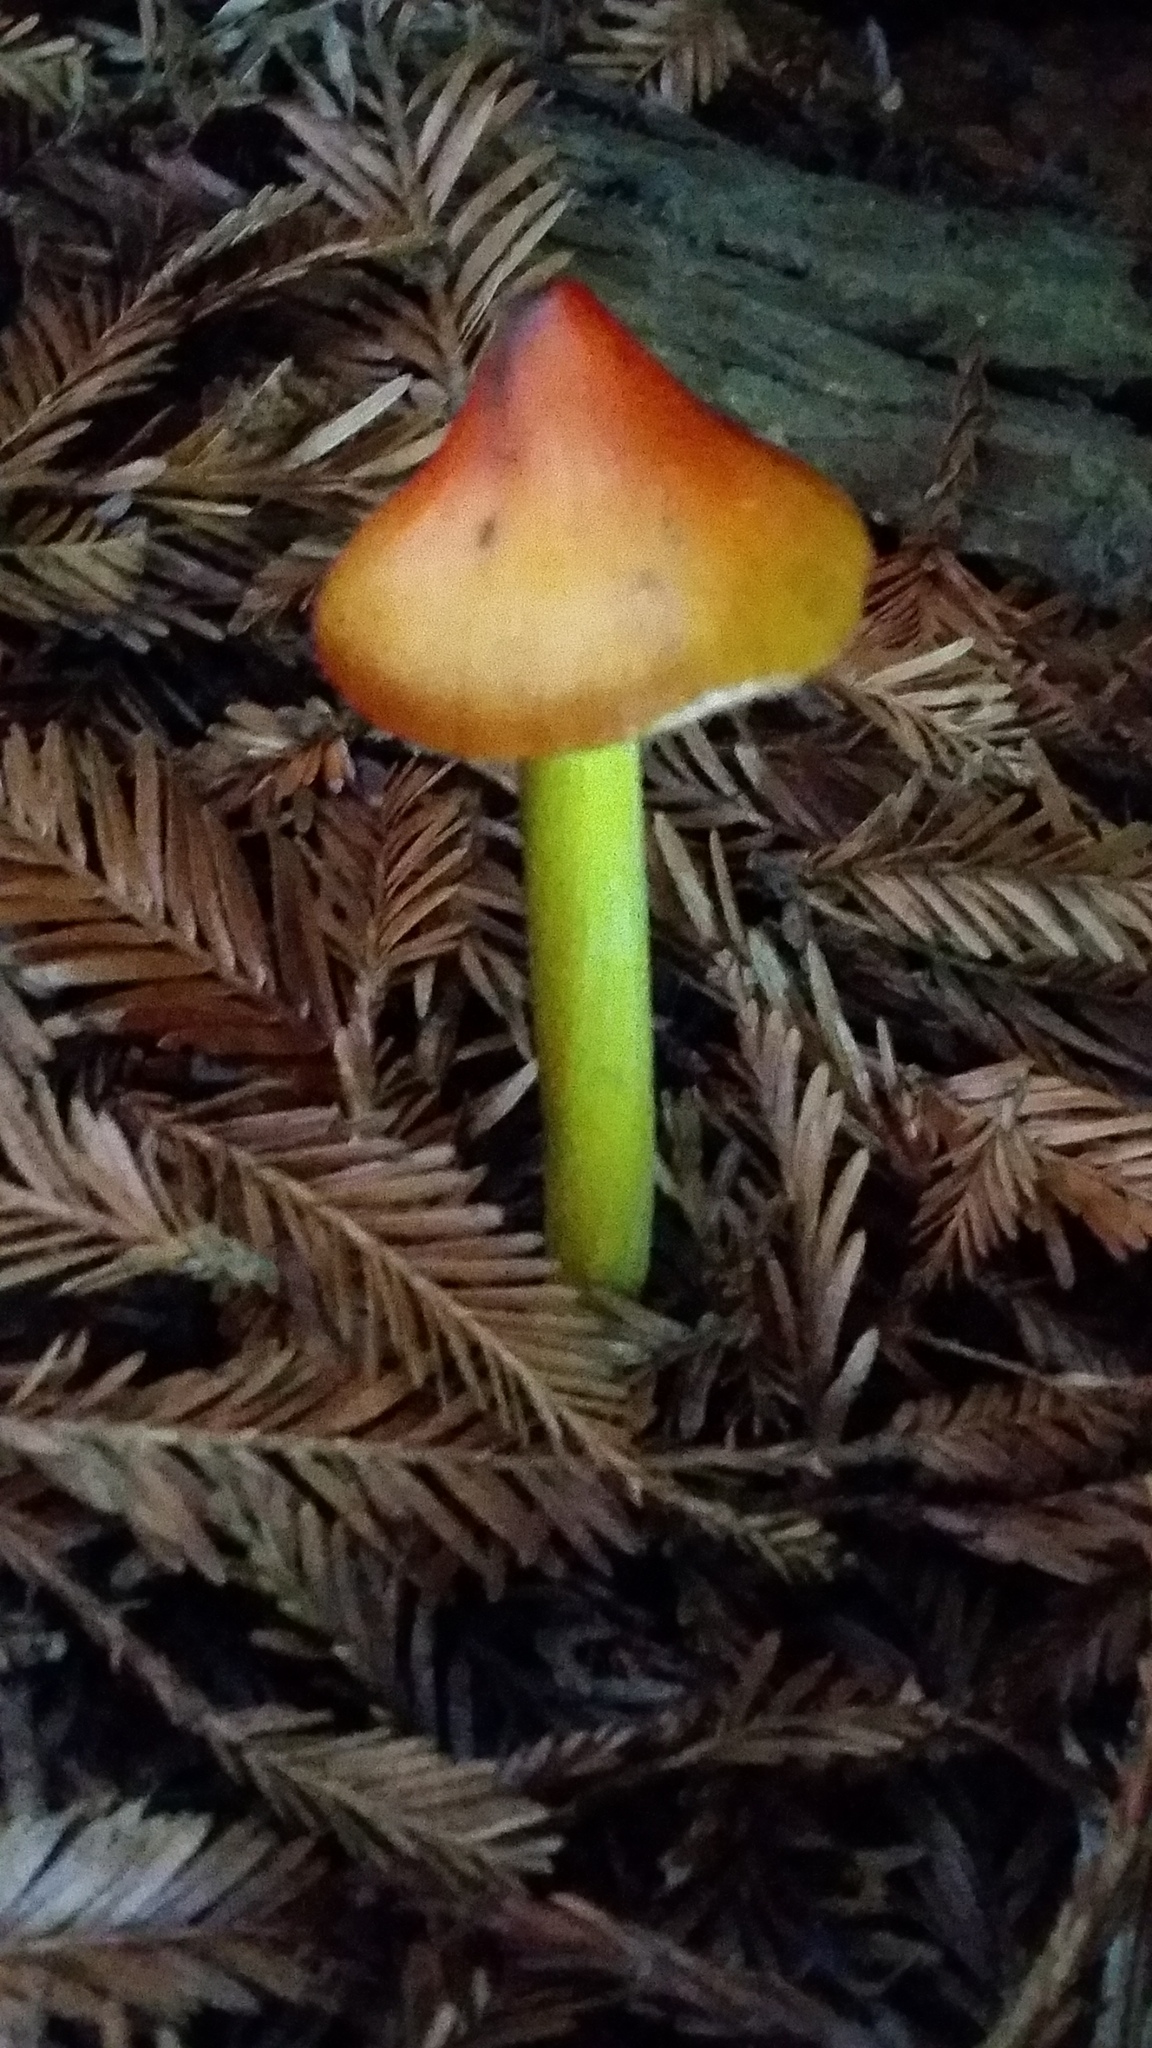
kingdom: Fungi
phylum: Basidiomycota
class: Agaricomycetes
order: Agaricales
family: Hygrophoraceae
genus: Hygrocybe
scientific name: Hygrocybe singeri
